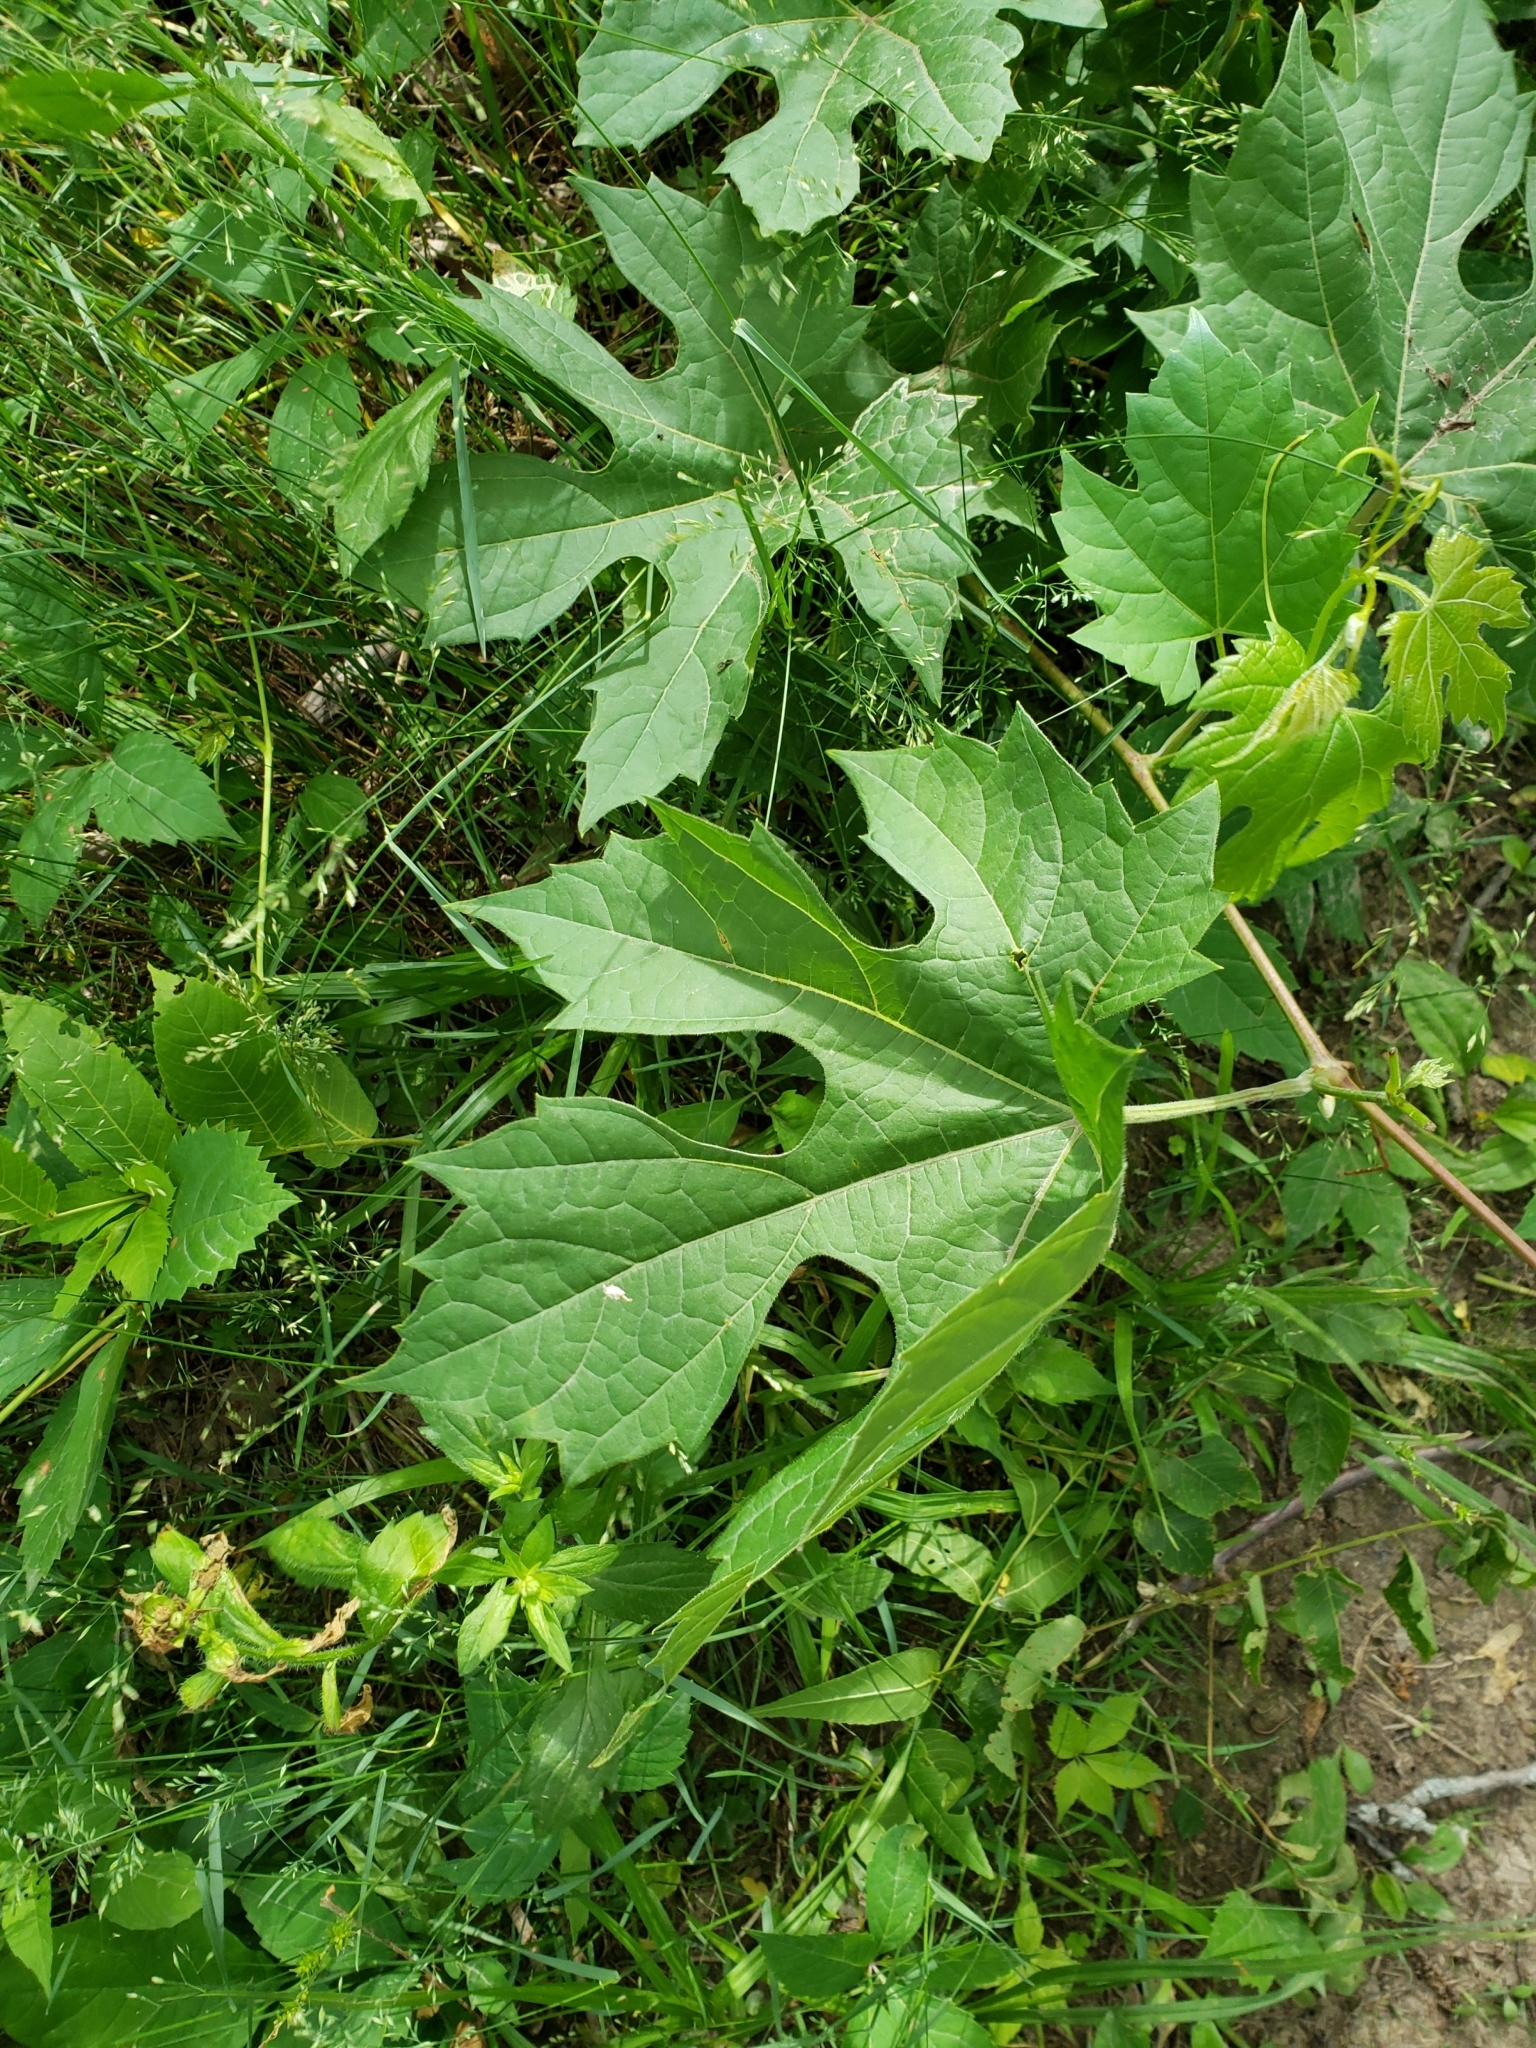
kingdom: Plantae
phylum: Tracheophyta
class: Magnoliopsida
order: Vitales
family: Vitaceae
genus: Vitis
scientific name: Vitis riparia
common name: Frost grape
